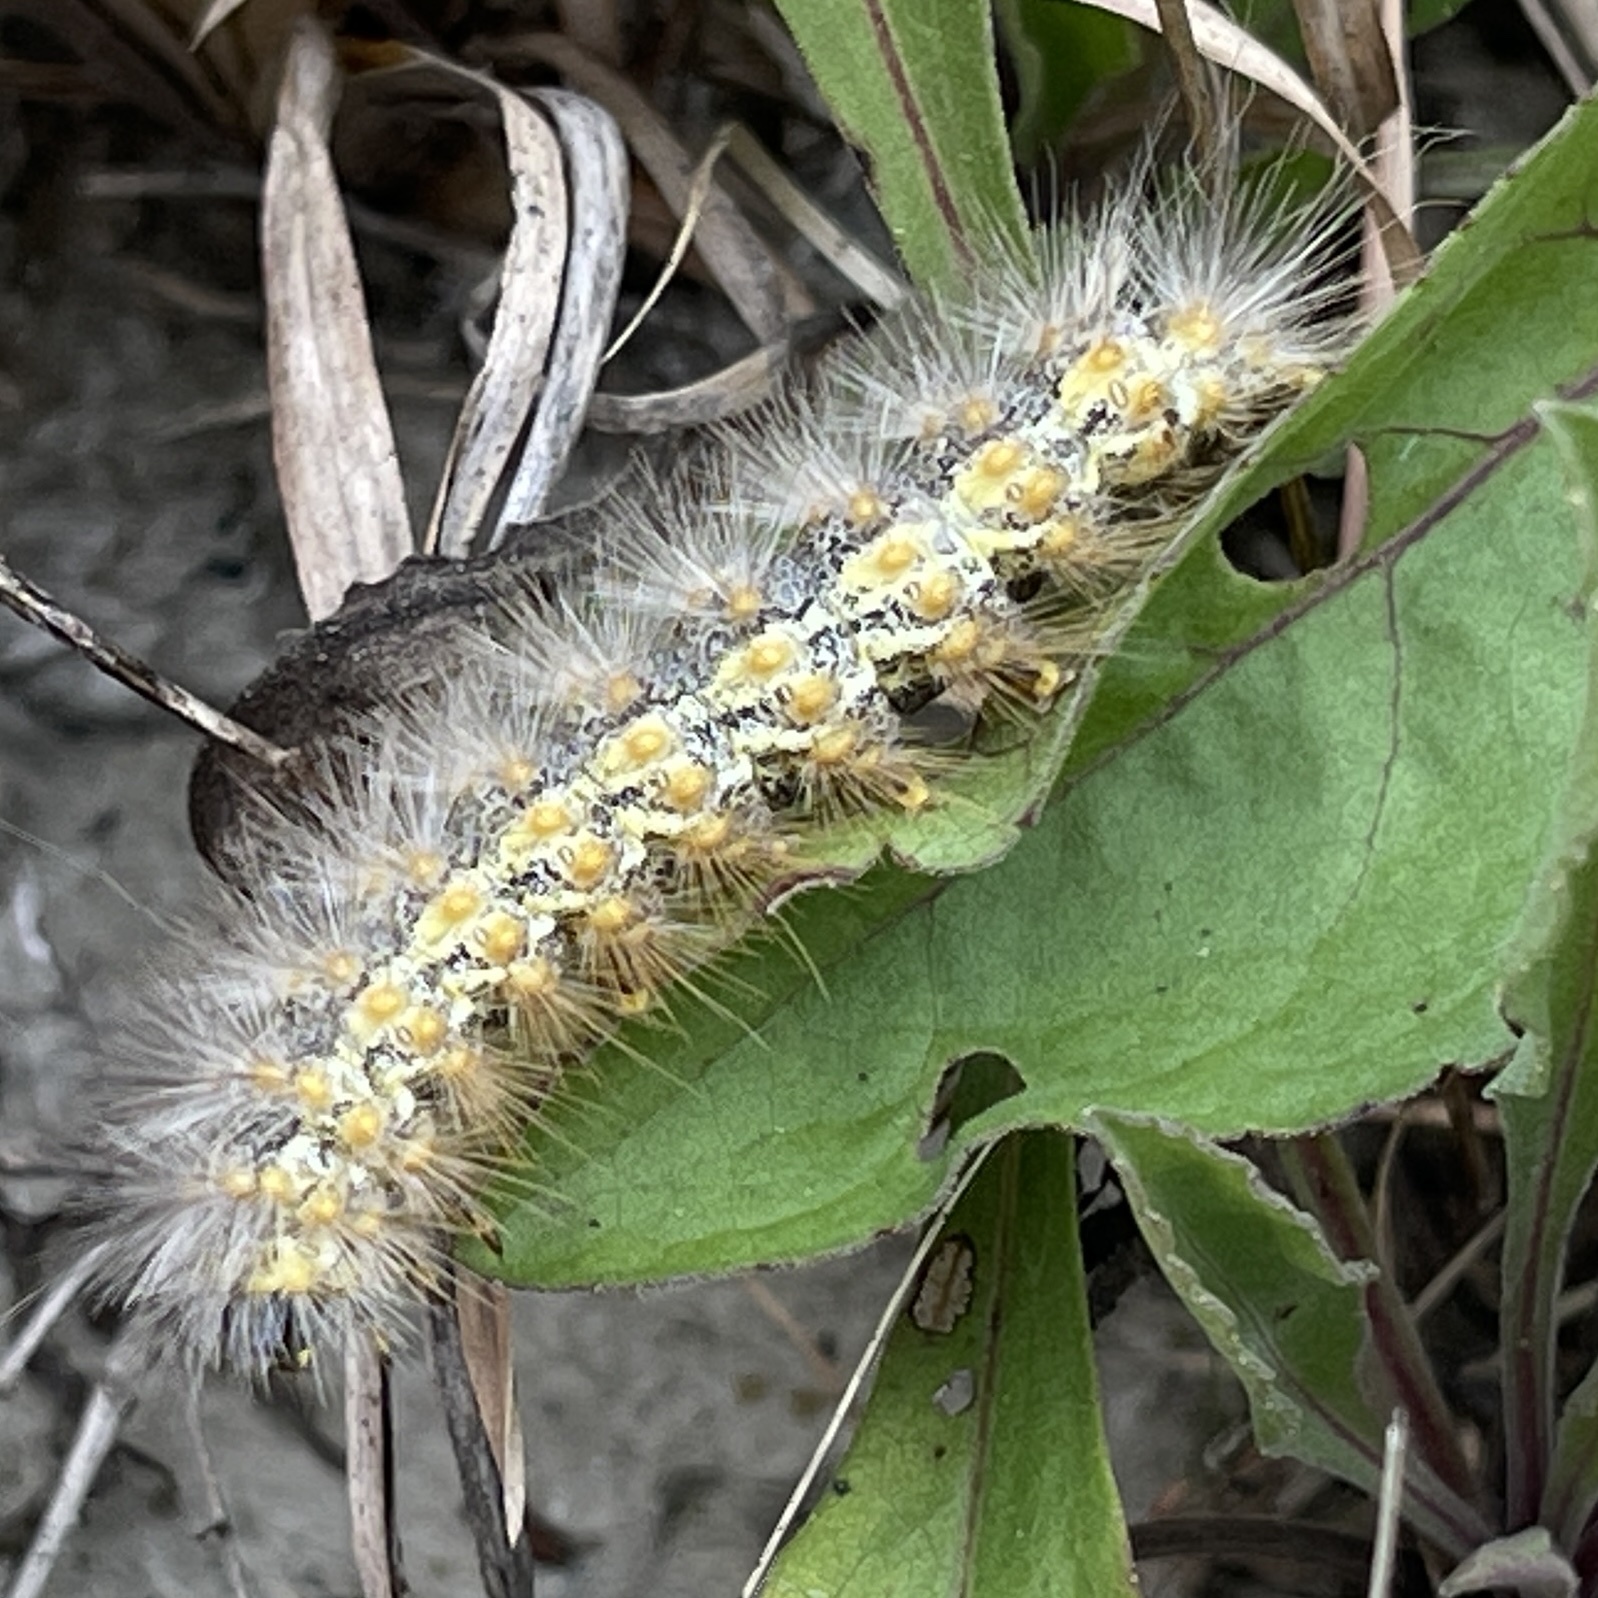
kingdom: Animalia
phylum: Arthropoda
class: Insecta
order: Lepidoptera
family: Erebidae
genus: Estigmene
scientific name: Estigmene acrea
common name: Salt marsh moth
